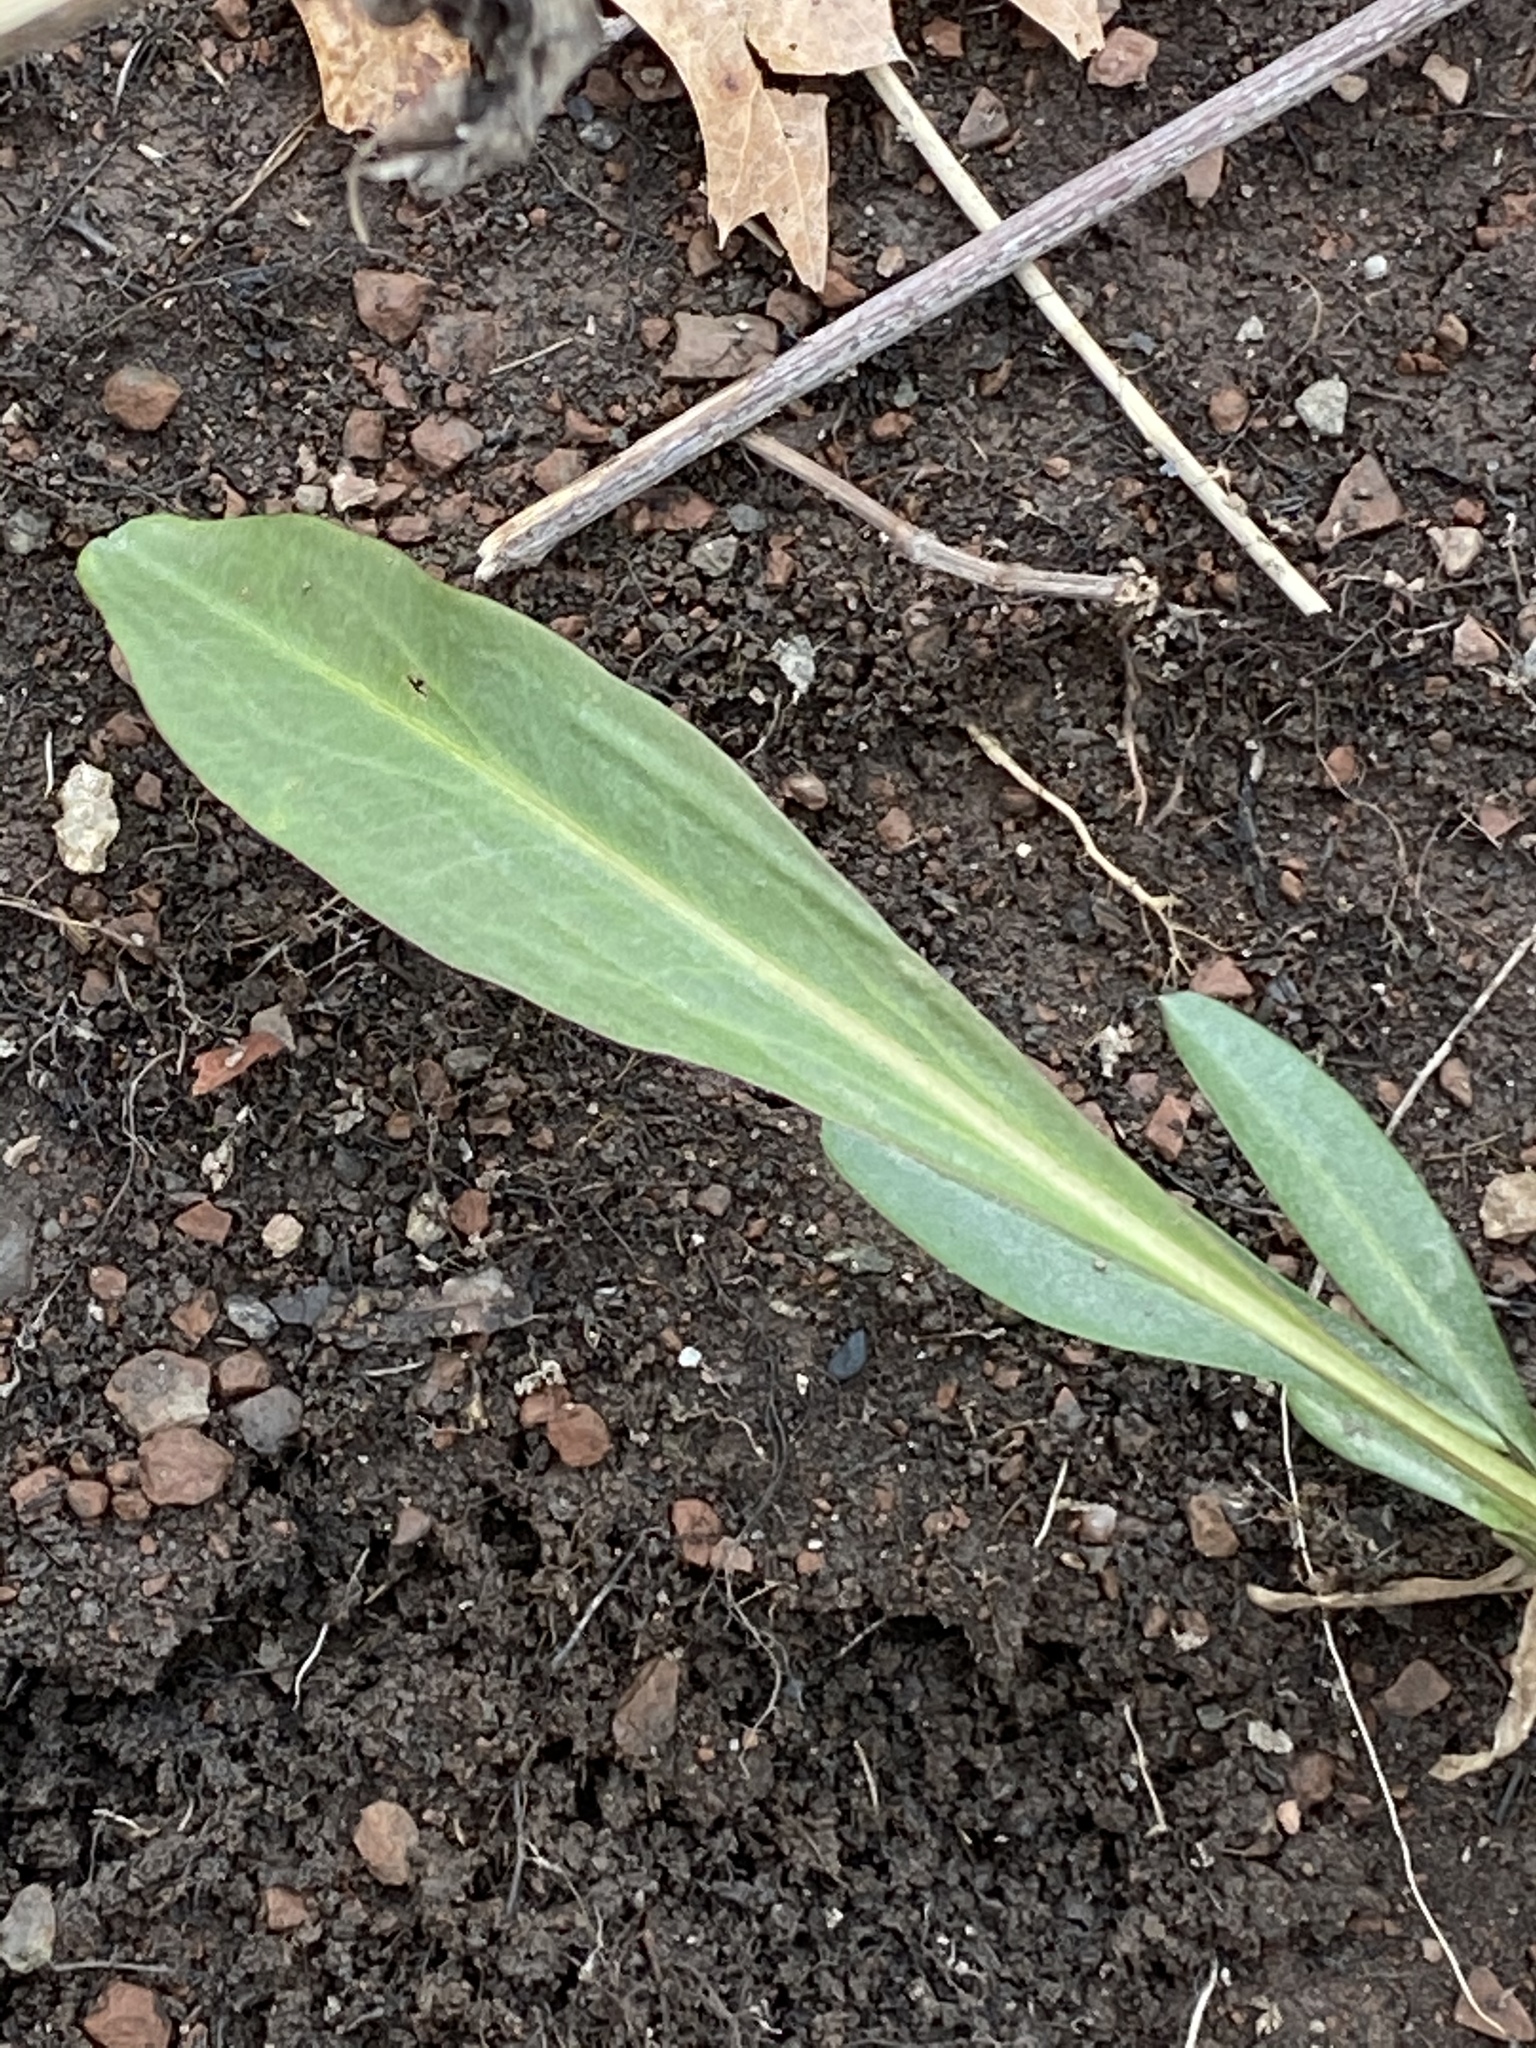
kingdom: Plantae
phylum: Tracheophyta
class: Magnoliopsida
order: Asterales
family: Asteraceae
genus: Solidago
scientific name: Solidago sempervirens
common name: Salt-marsh goldenrod
